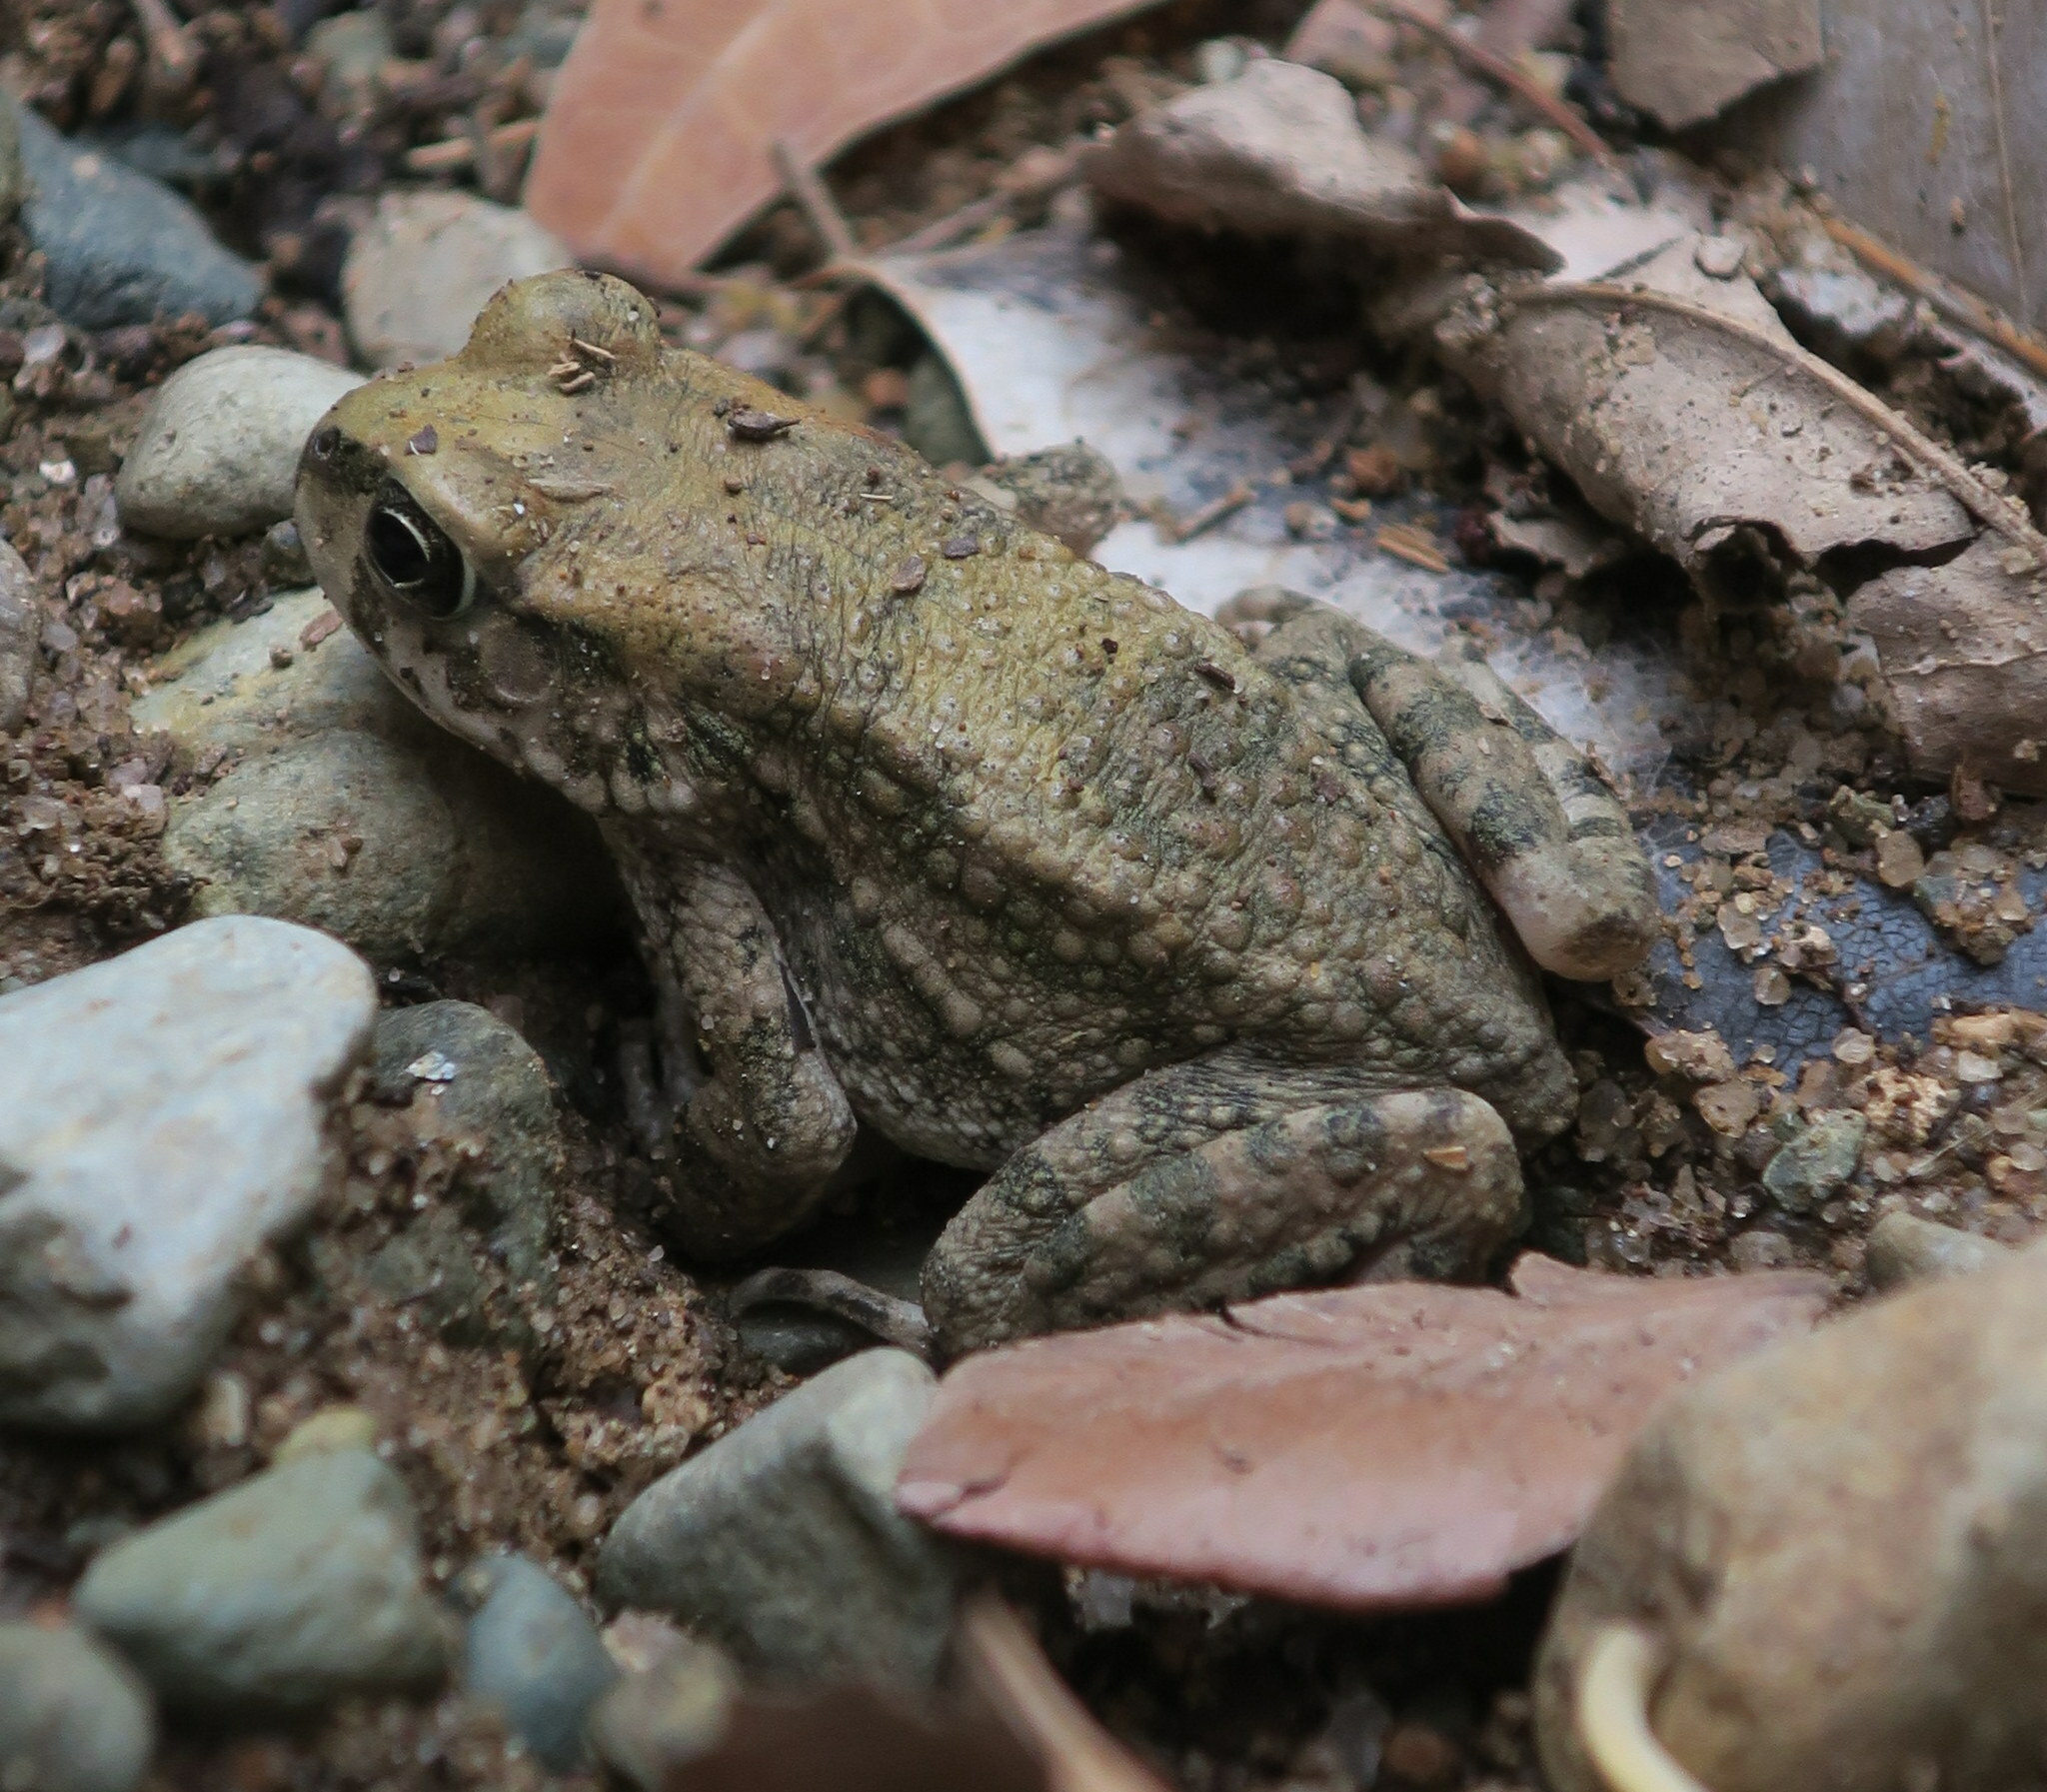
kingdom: Animalia
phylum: Chordata
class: Amphibia
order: Anura
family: Bufonidae
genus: Sclerophrys
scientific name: Sclerophrys arabica
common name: Arabian toad
